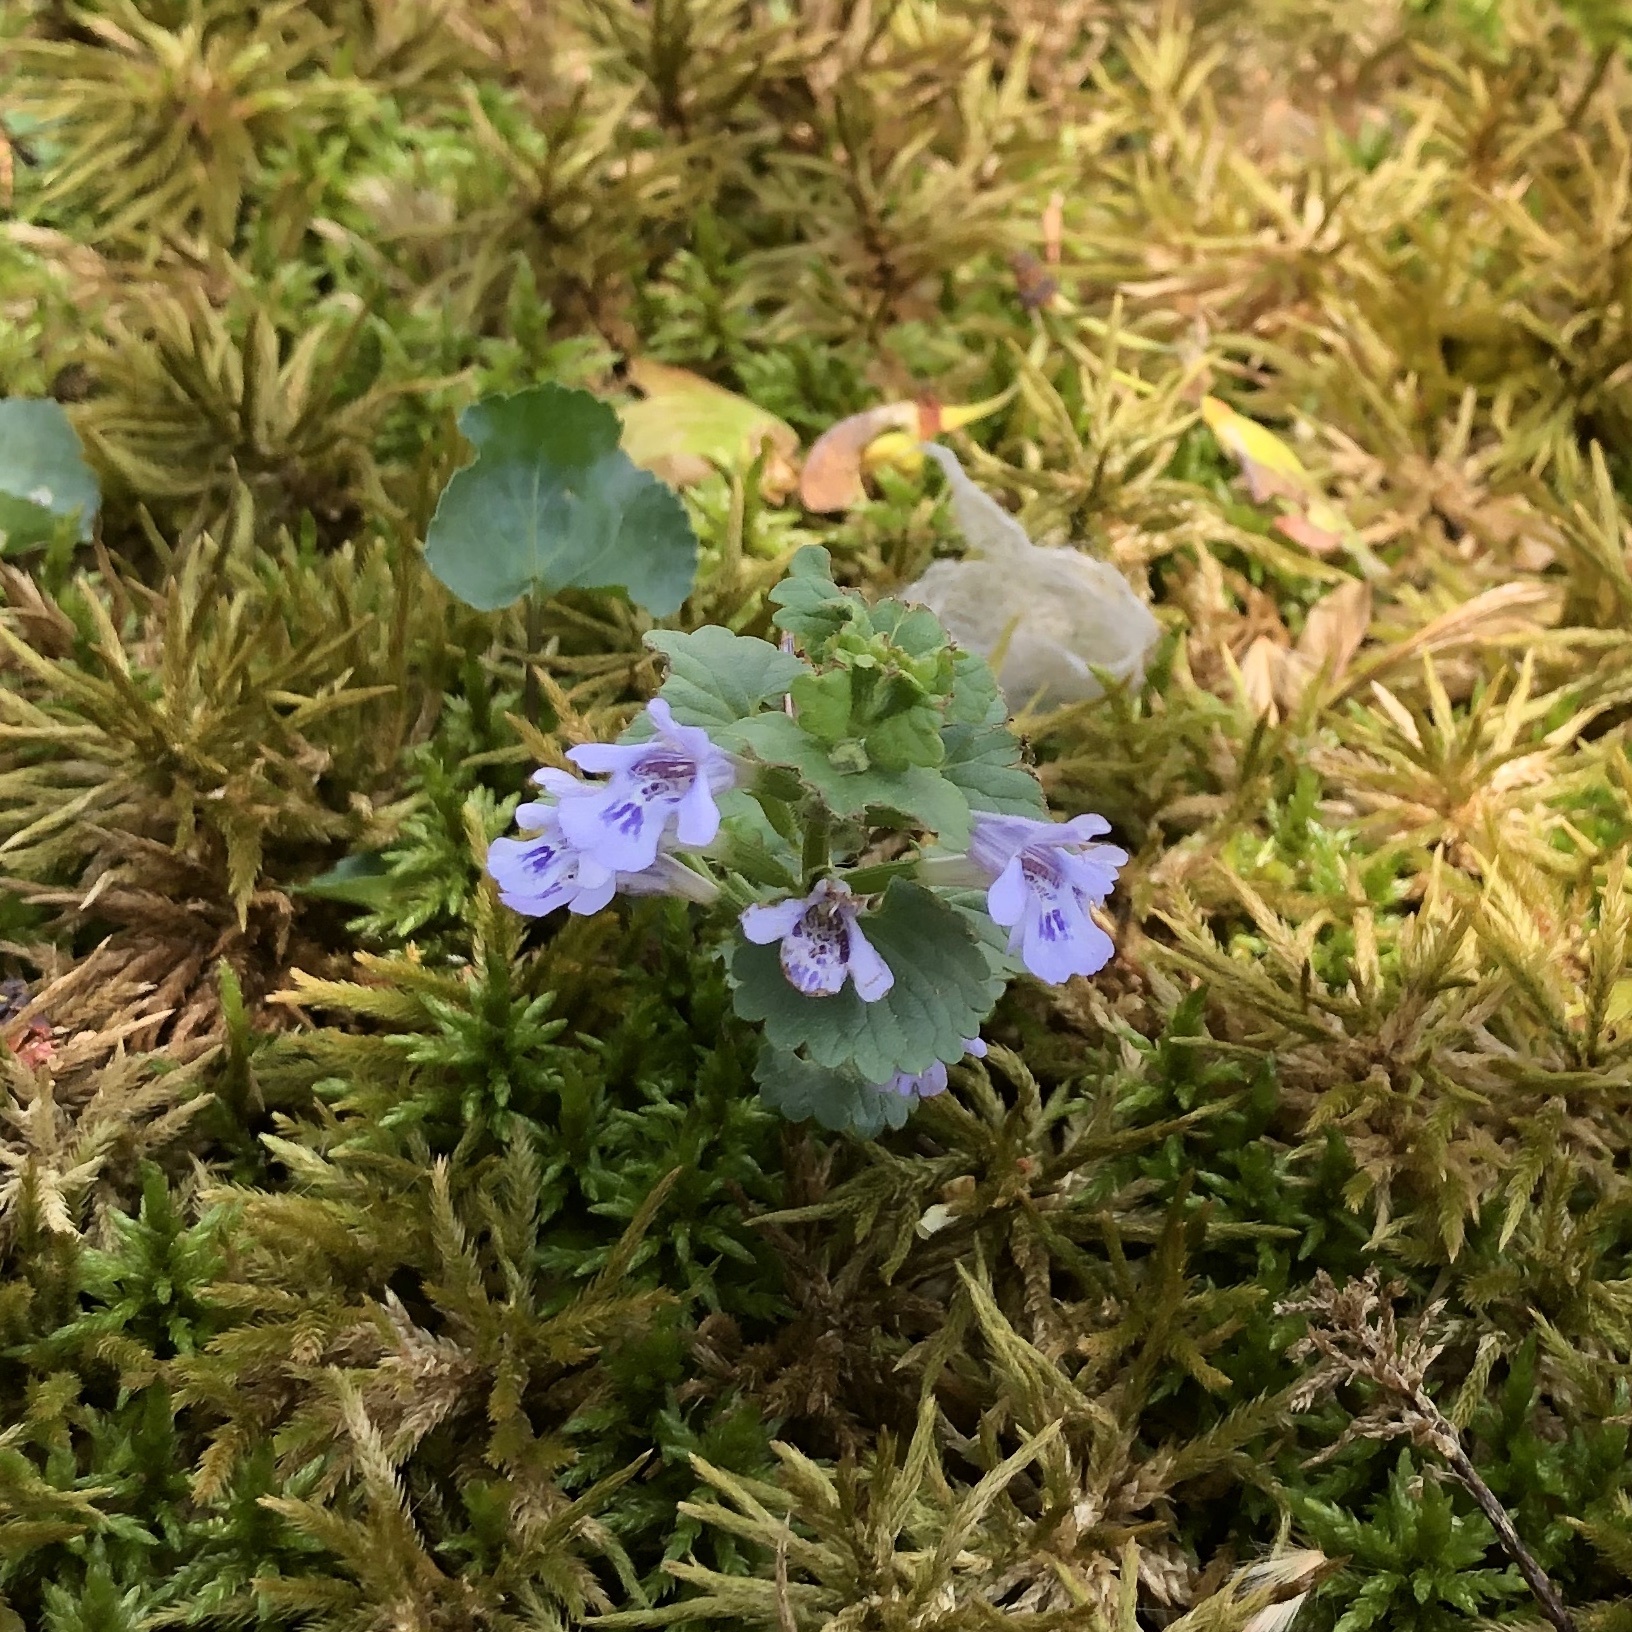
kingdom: Plantae
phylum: Tracheophyta
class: Magnoliopsida
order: Lamiales
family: Lamiaceae
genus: Glechoma
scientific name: Glechoma hederacea
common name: Ground ivy
